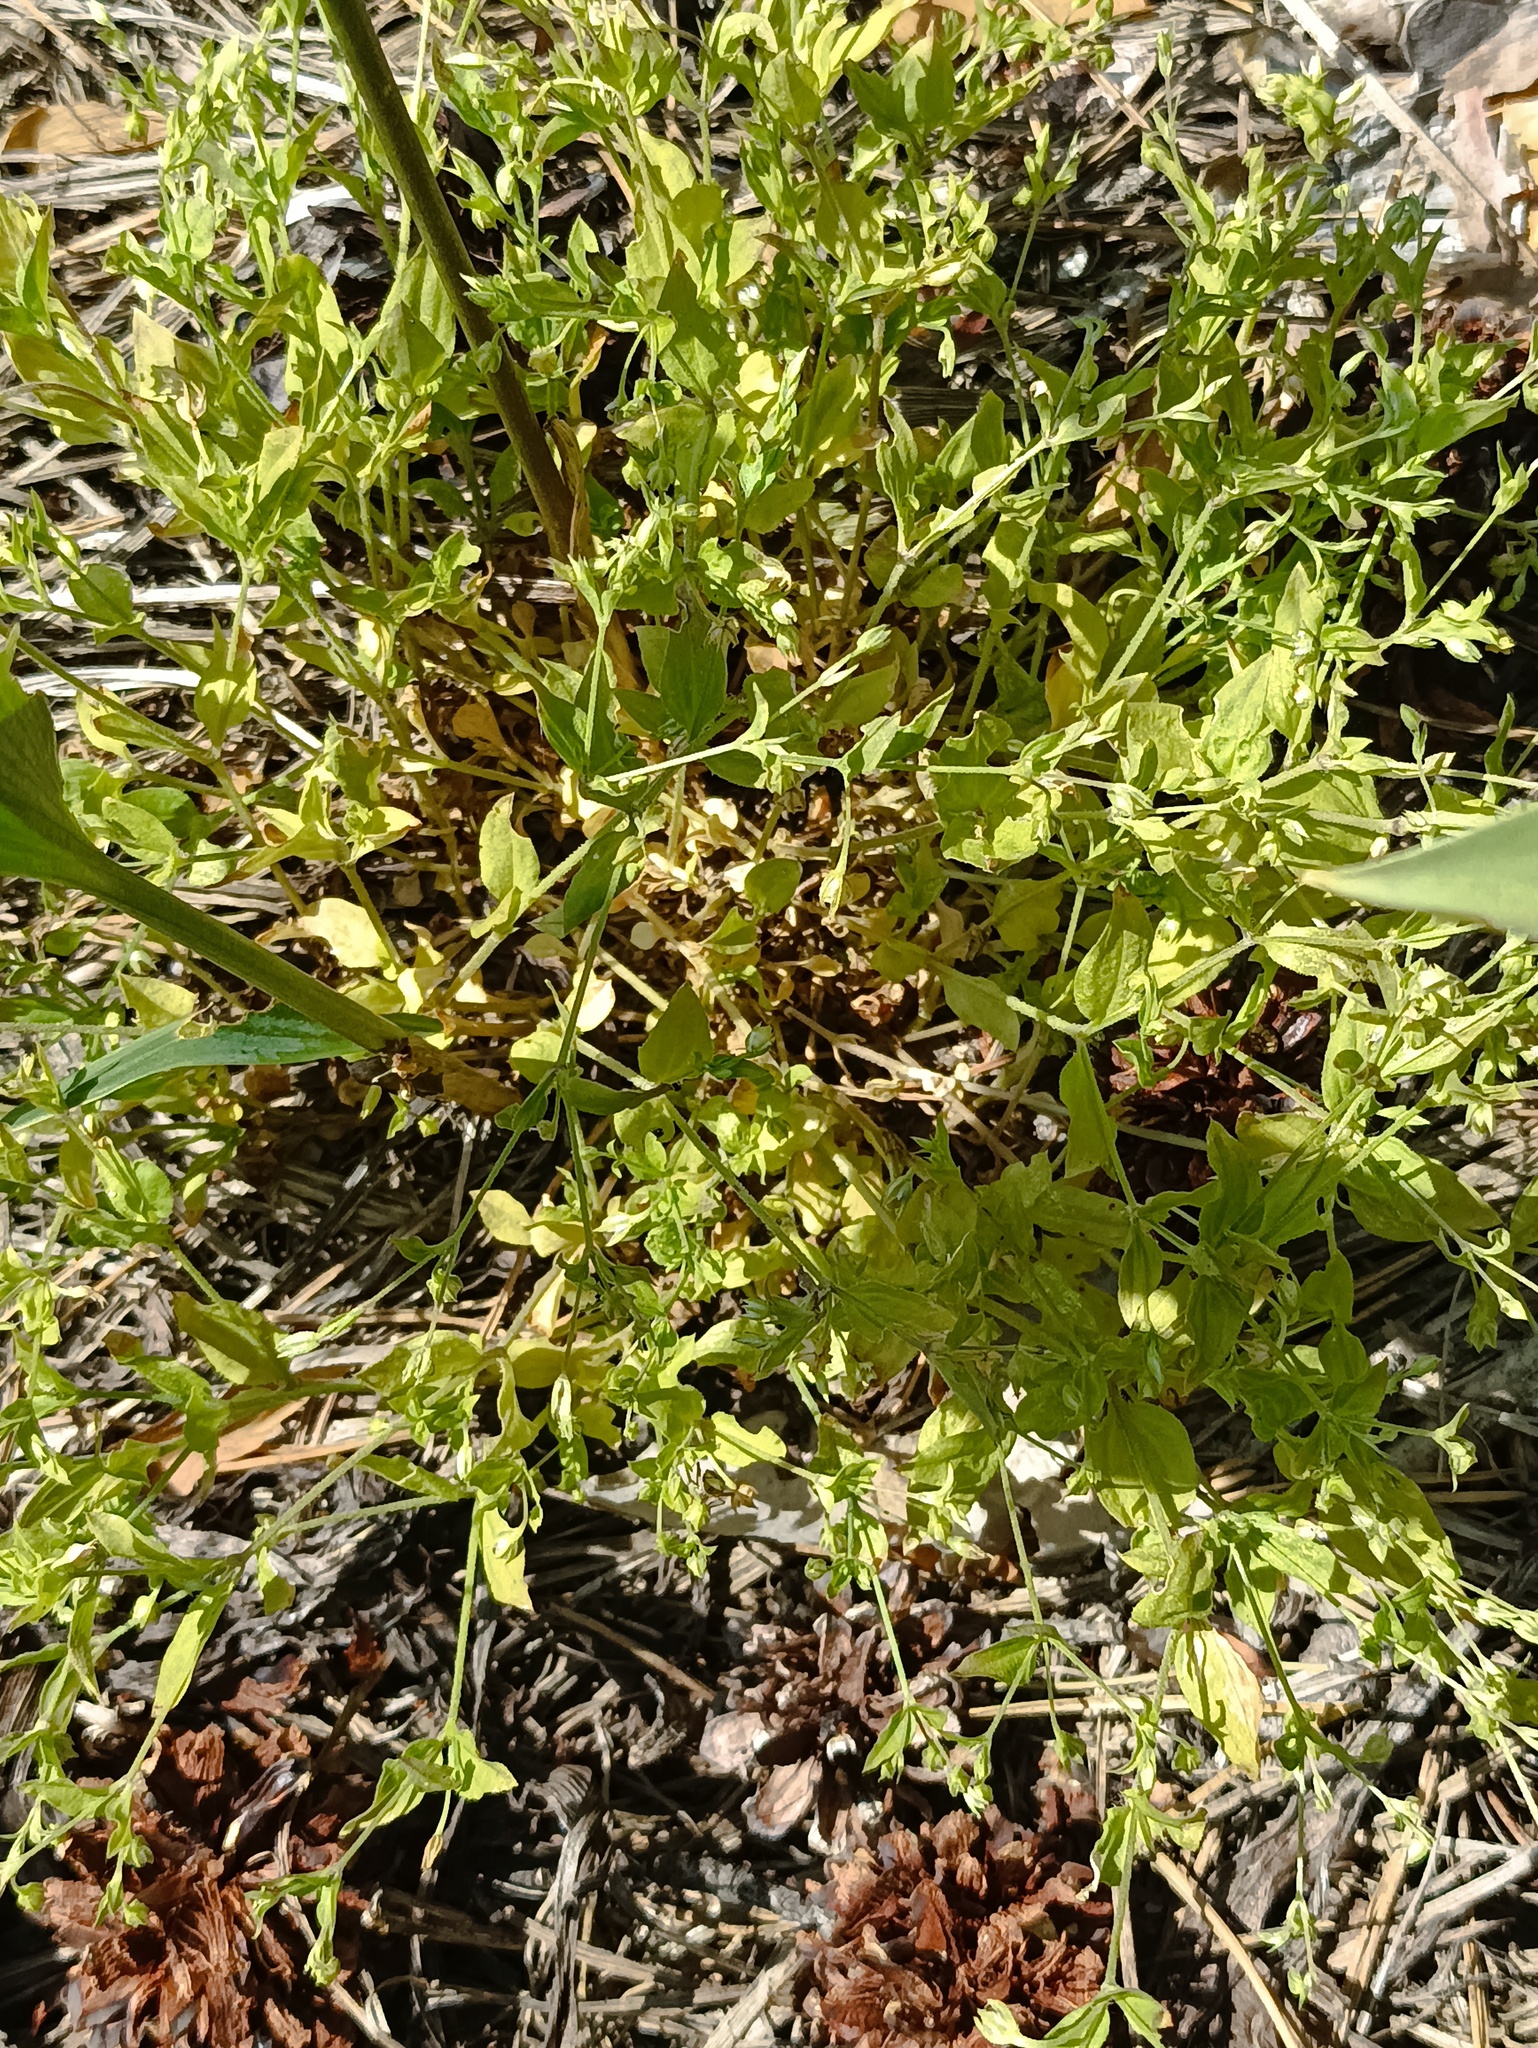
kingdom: Plantae
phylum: Tracheophyta
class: Magnoliopsida
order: Caryophyllales
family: Caryophyllaceae
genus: Moehringia
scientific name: Moehringia trinervia
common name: Three-nerved sandwort
